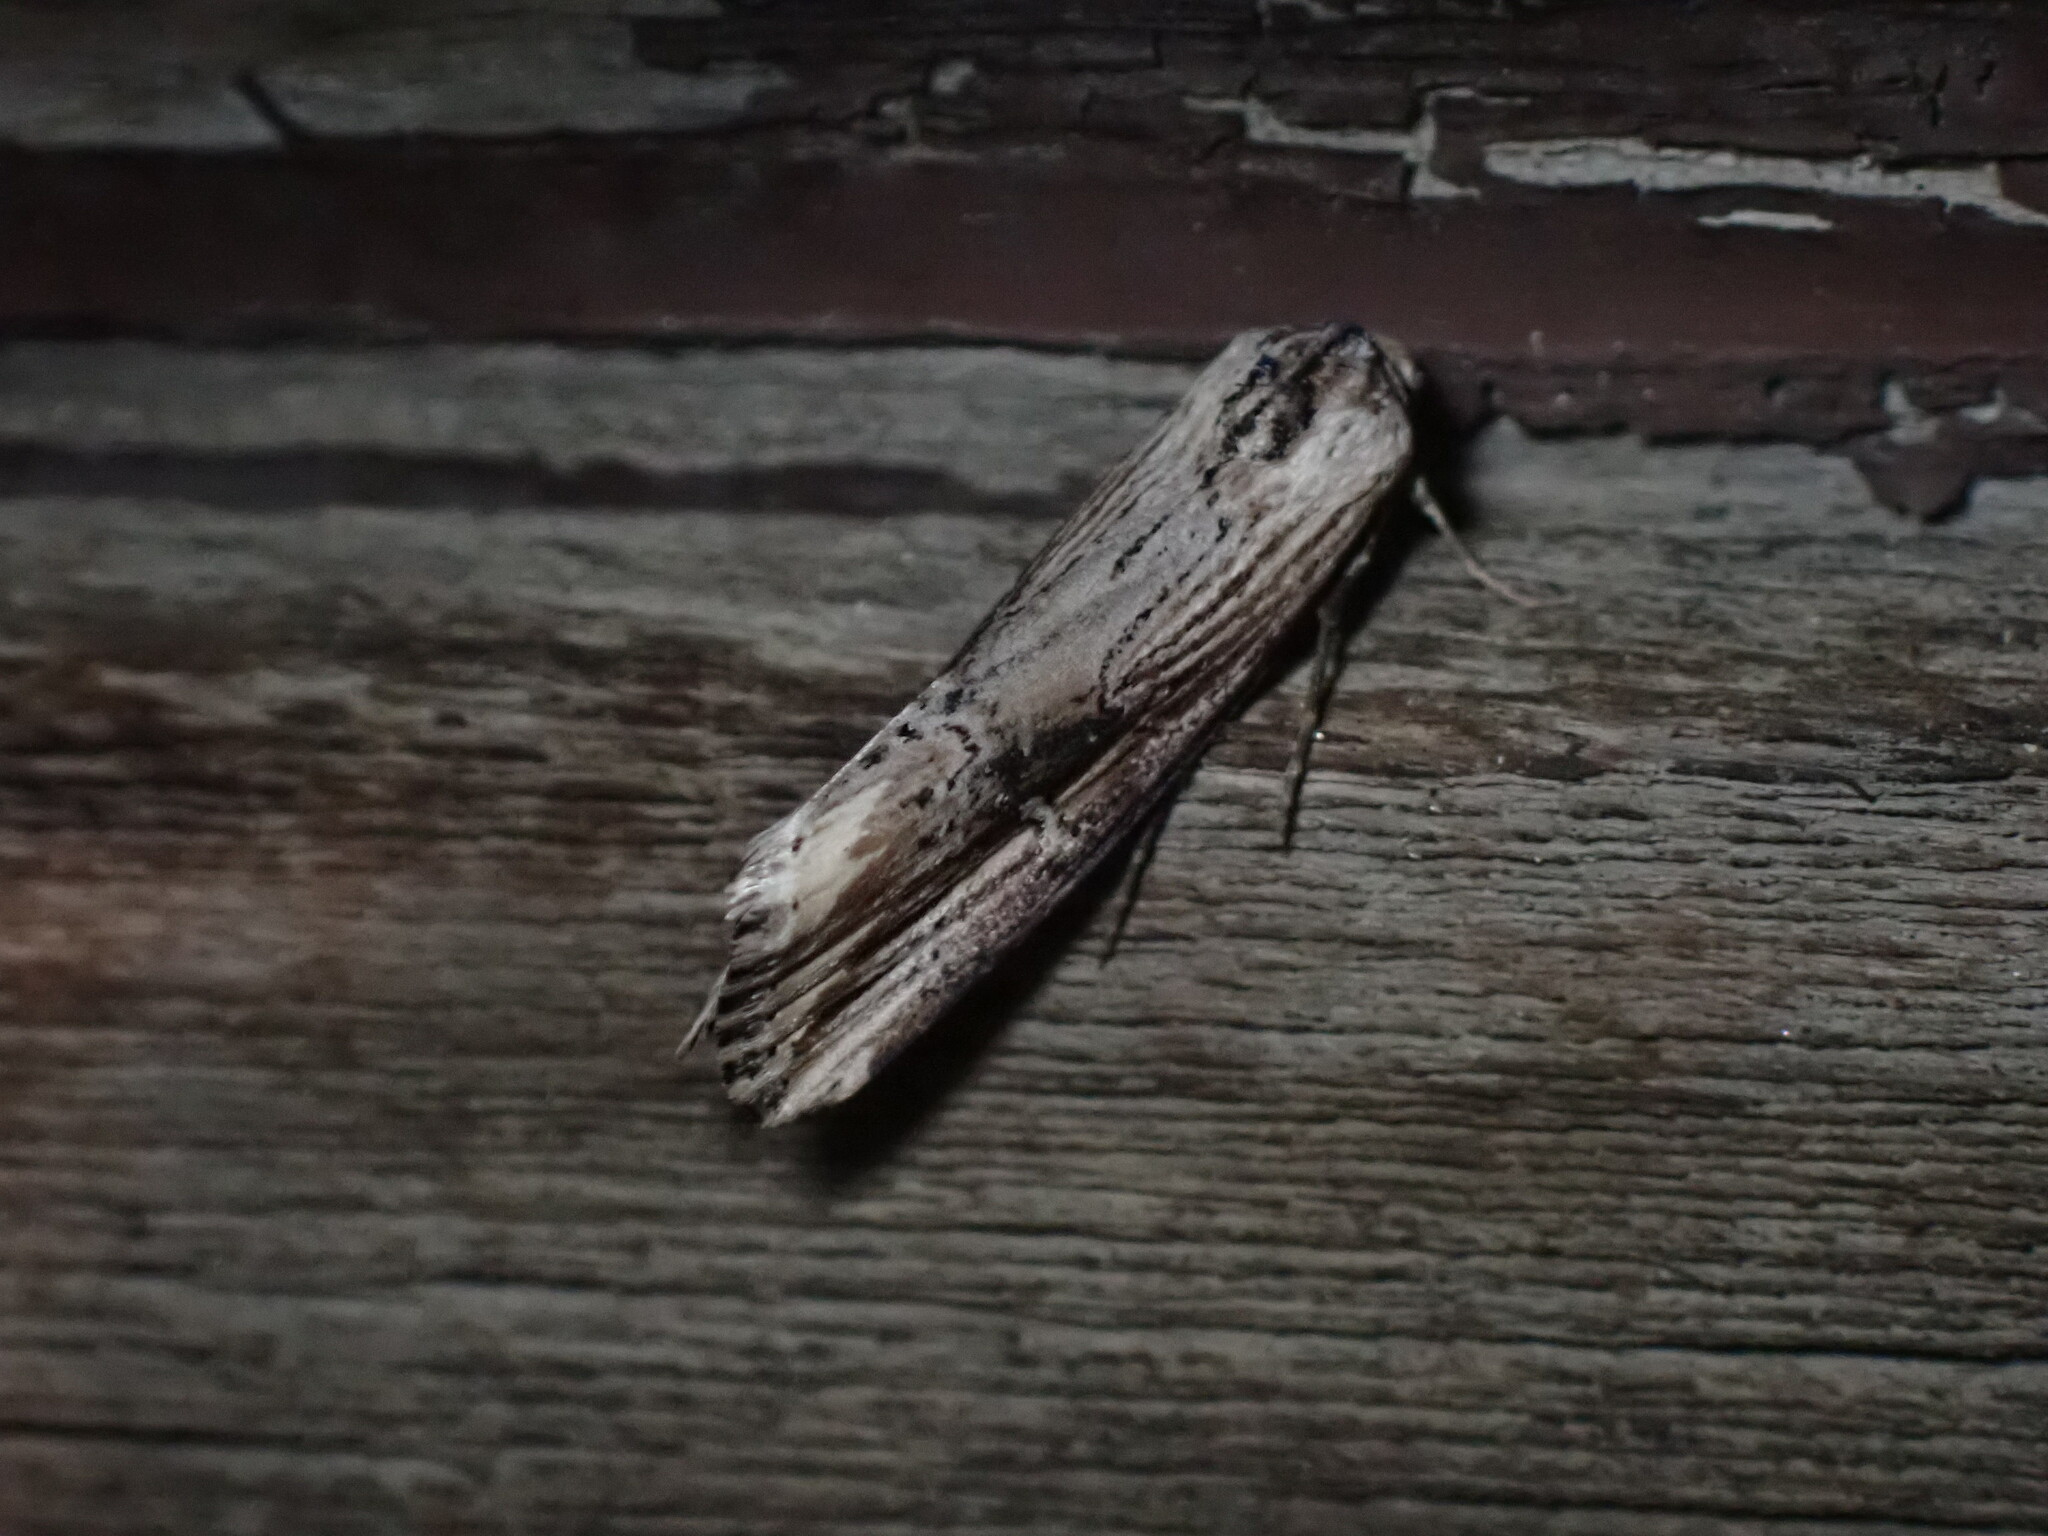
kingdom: Animalia
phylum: Arthropoda
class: Insecta
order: Lepidoptera
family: Noctuidae
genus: Crambodes
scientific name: Crambodes talidiformis
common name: Verbena moth
